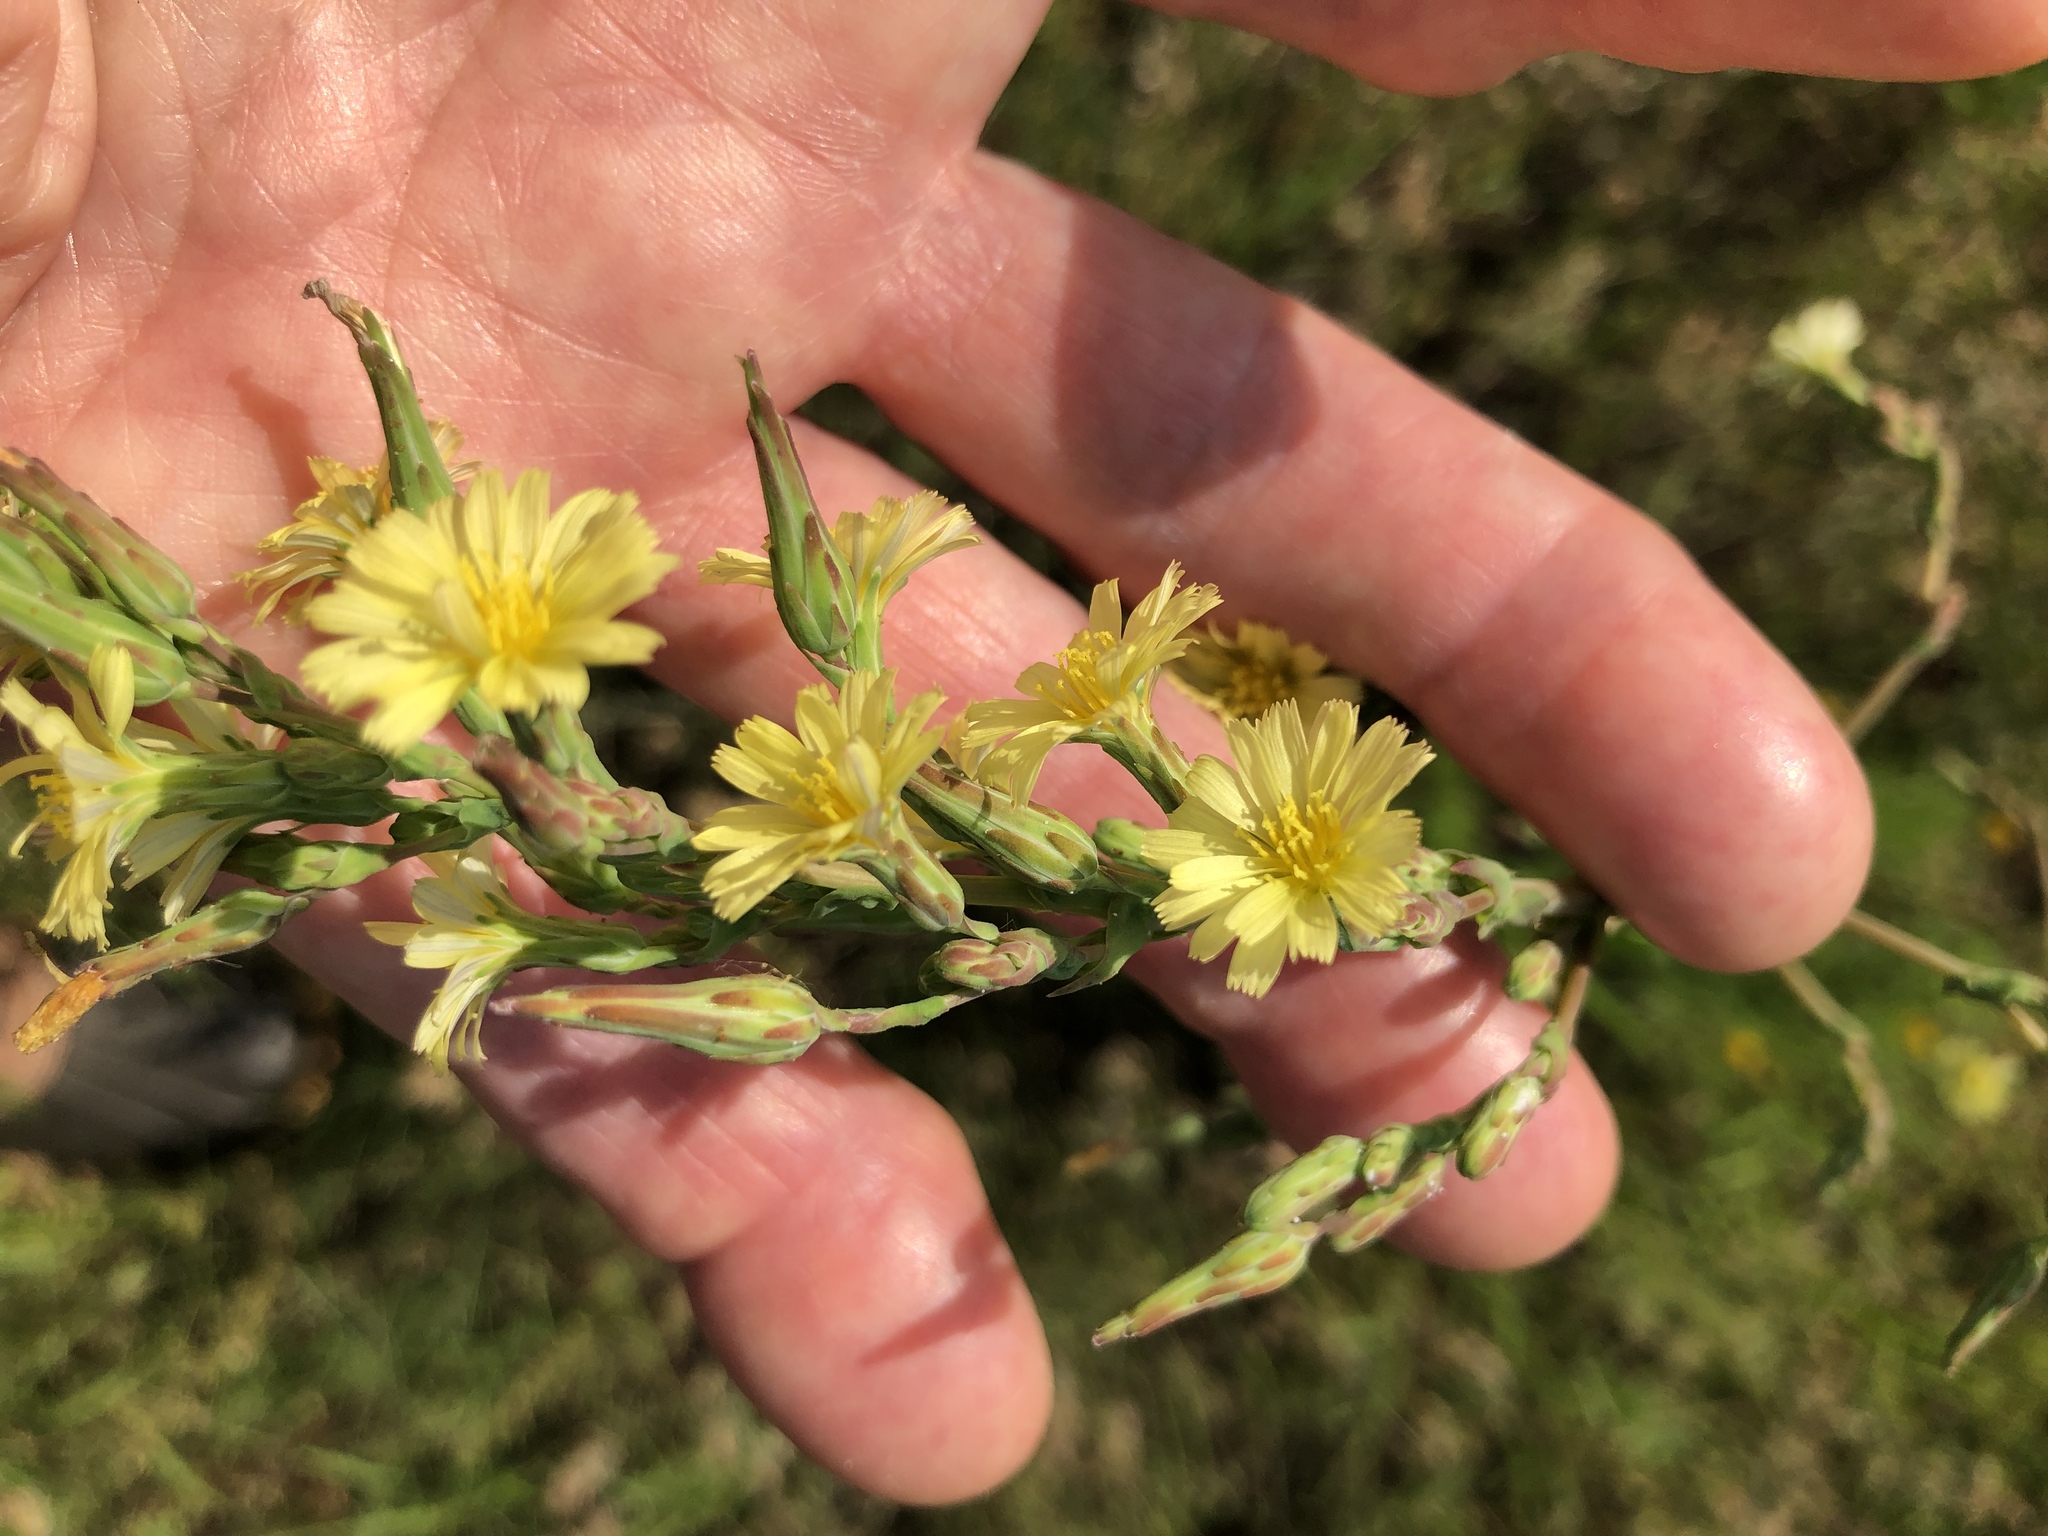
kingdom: Plantae
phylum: Tracheophyta
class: Magnoliopsida
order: Asterales
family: Asteraceae
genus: Lactuca
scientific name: Lactuca serriola
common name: Prickly lettuce
